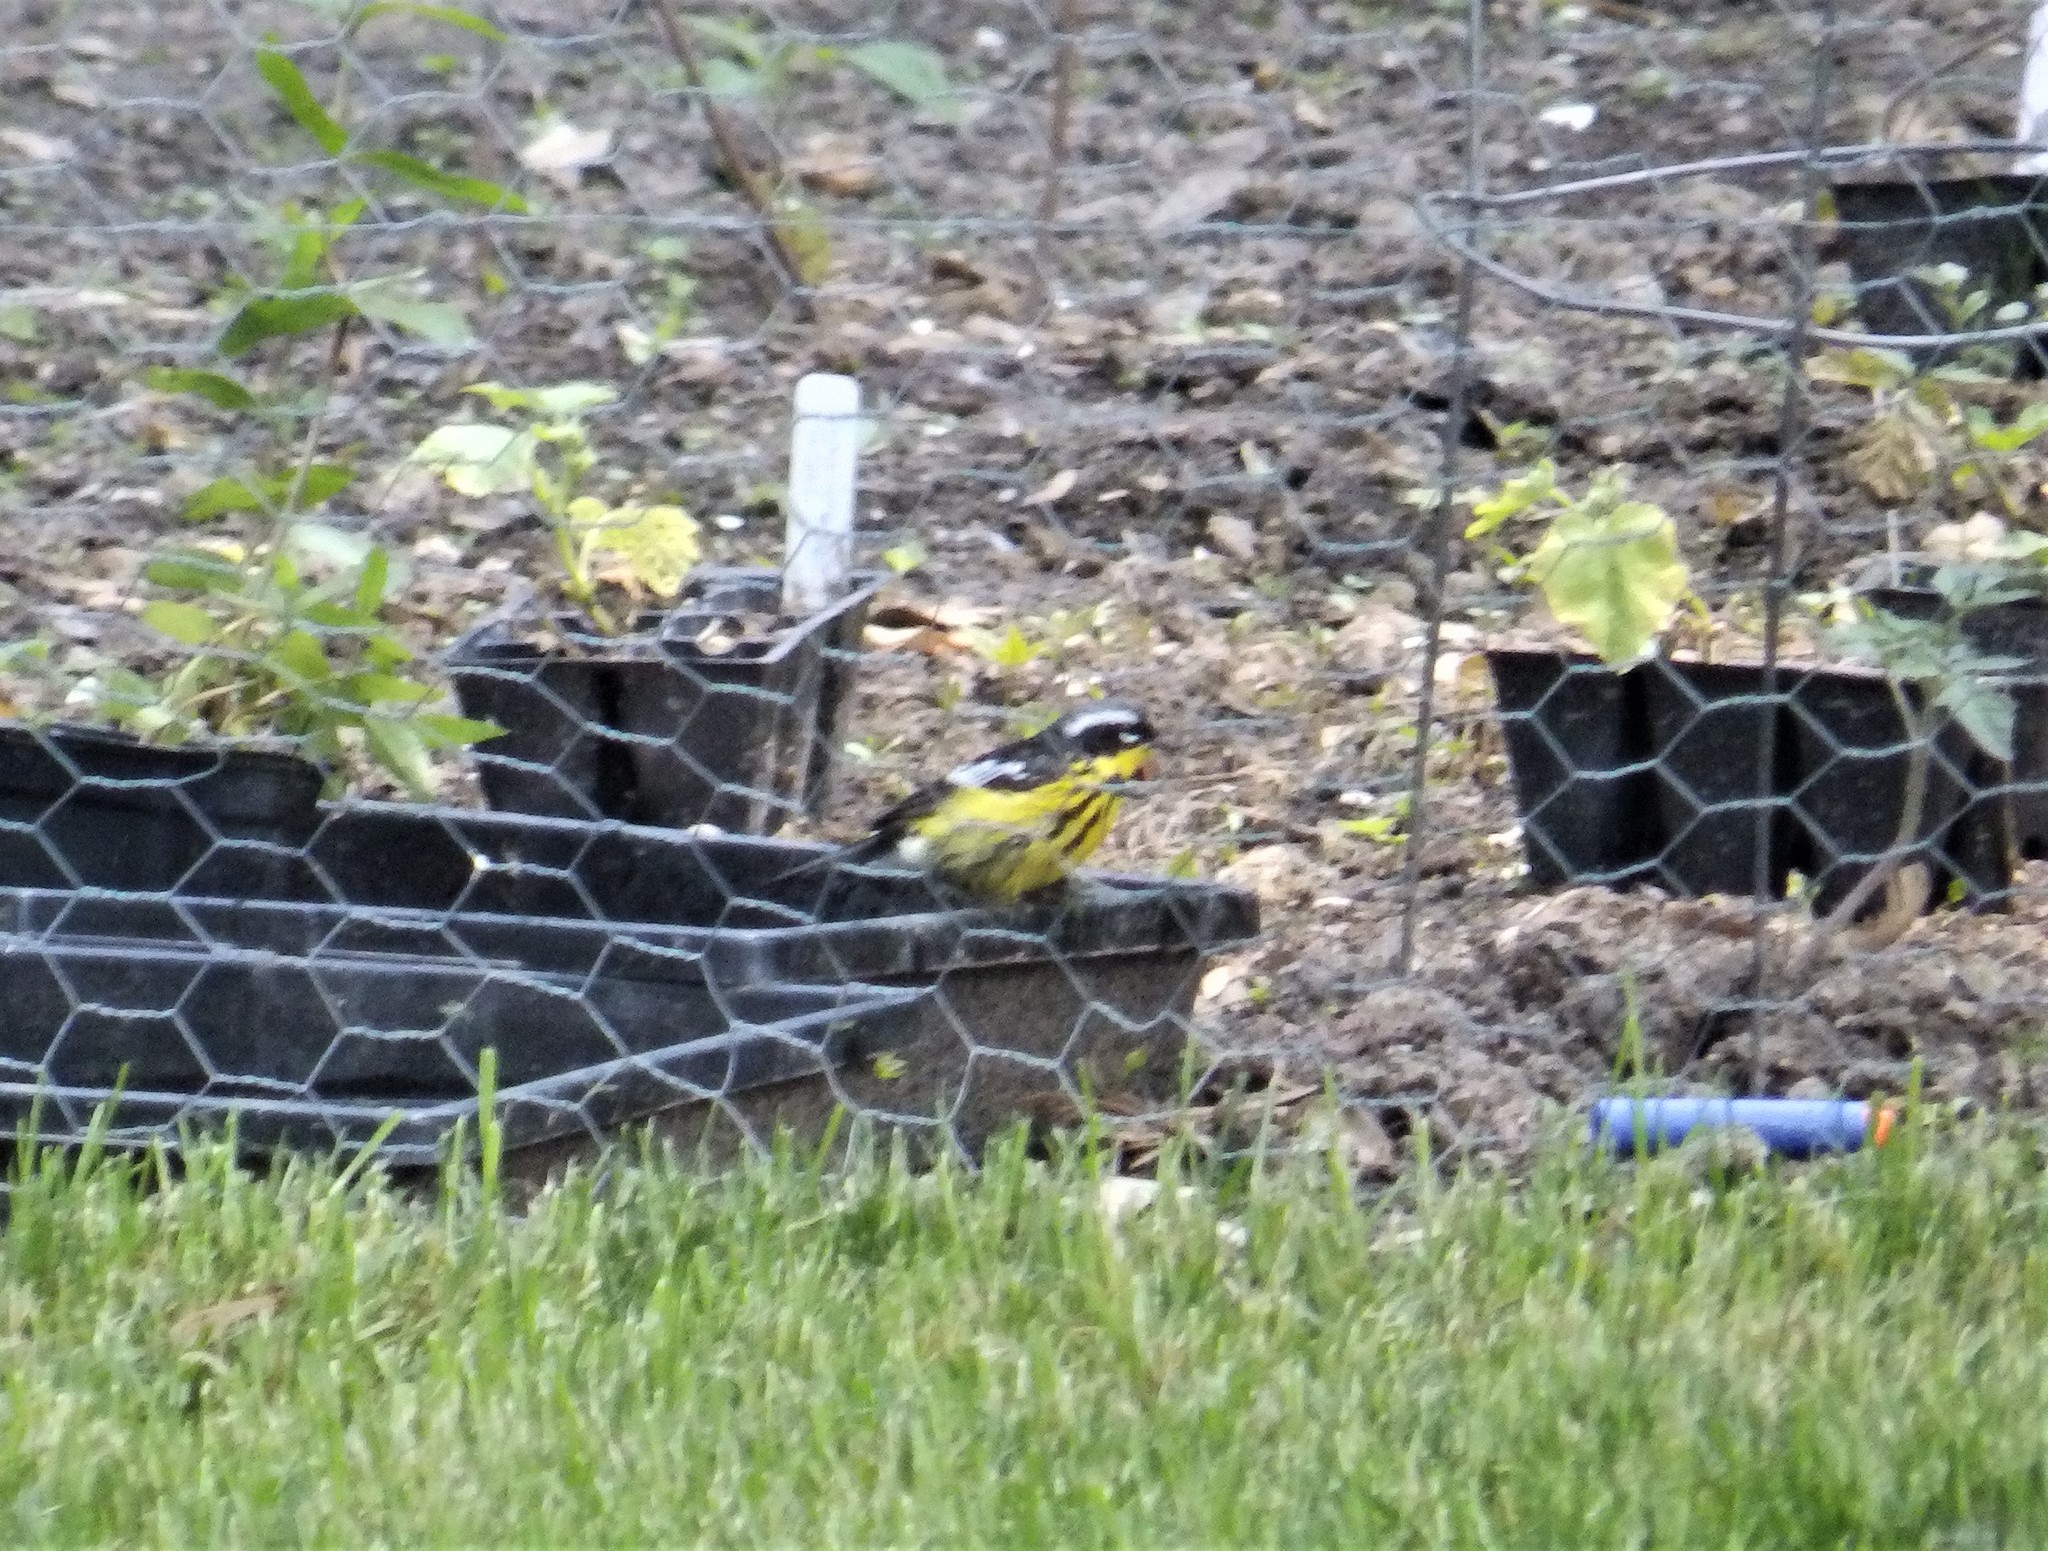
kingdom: Animalia
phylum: Chordata
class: Aves
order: Passeriformes
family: Parulidae
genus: Setophaga
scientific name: Setophaga magnolia
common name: Magnolia warbler
